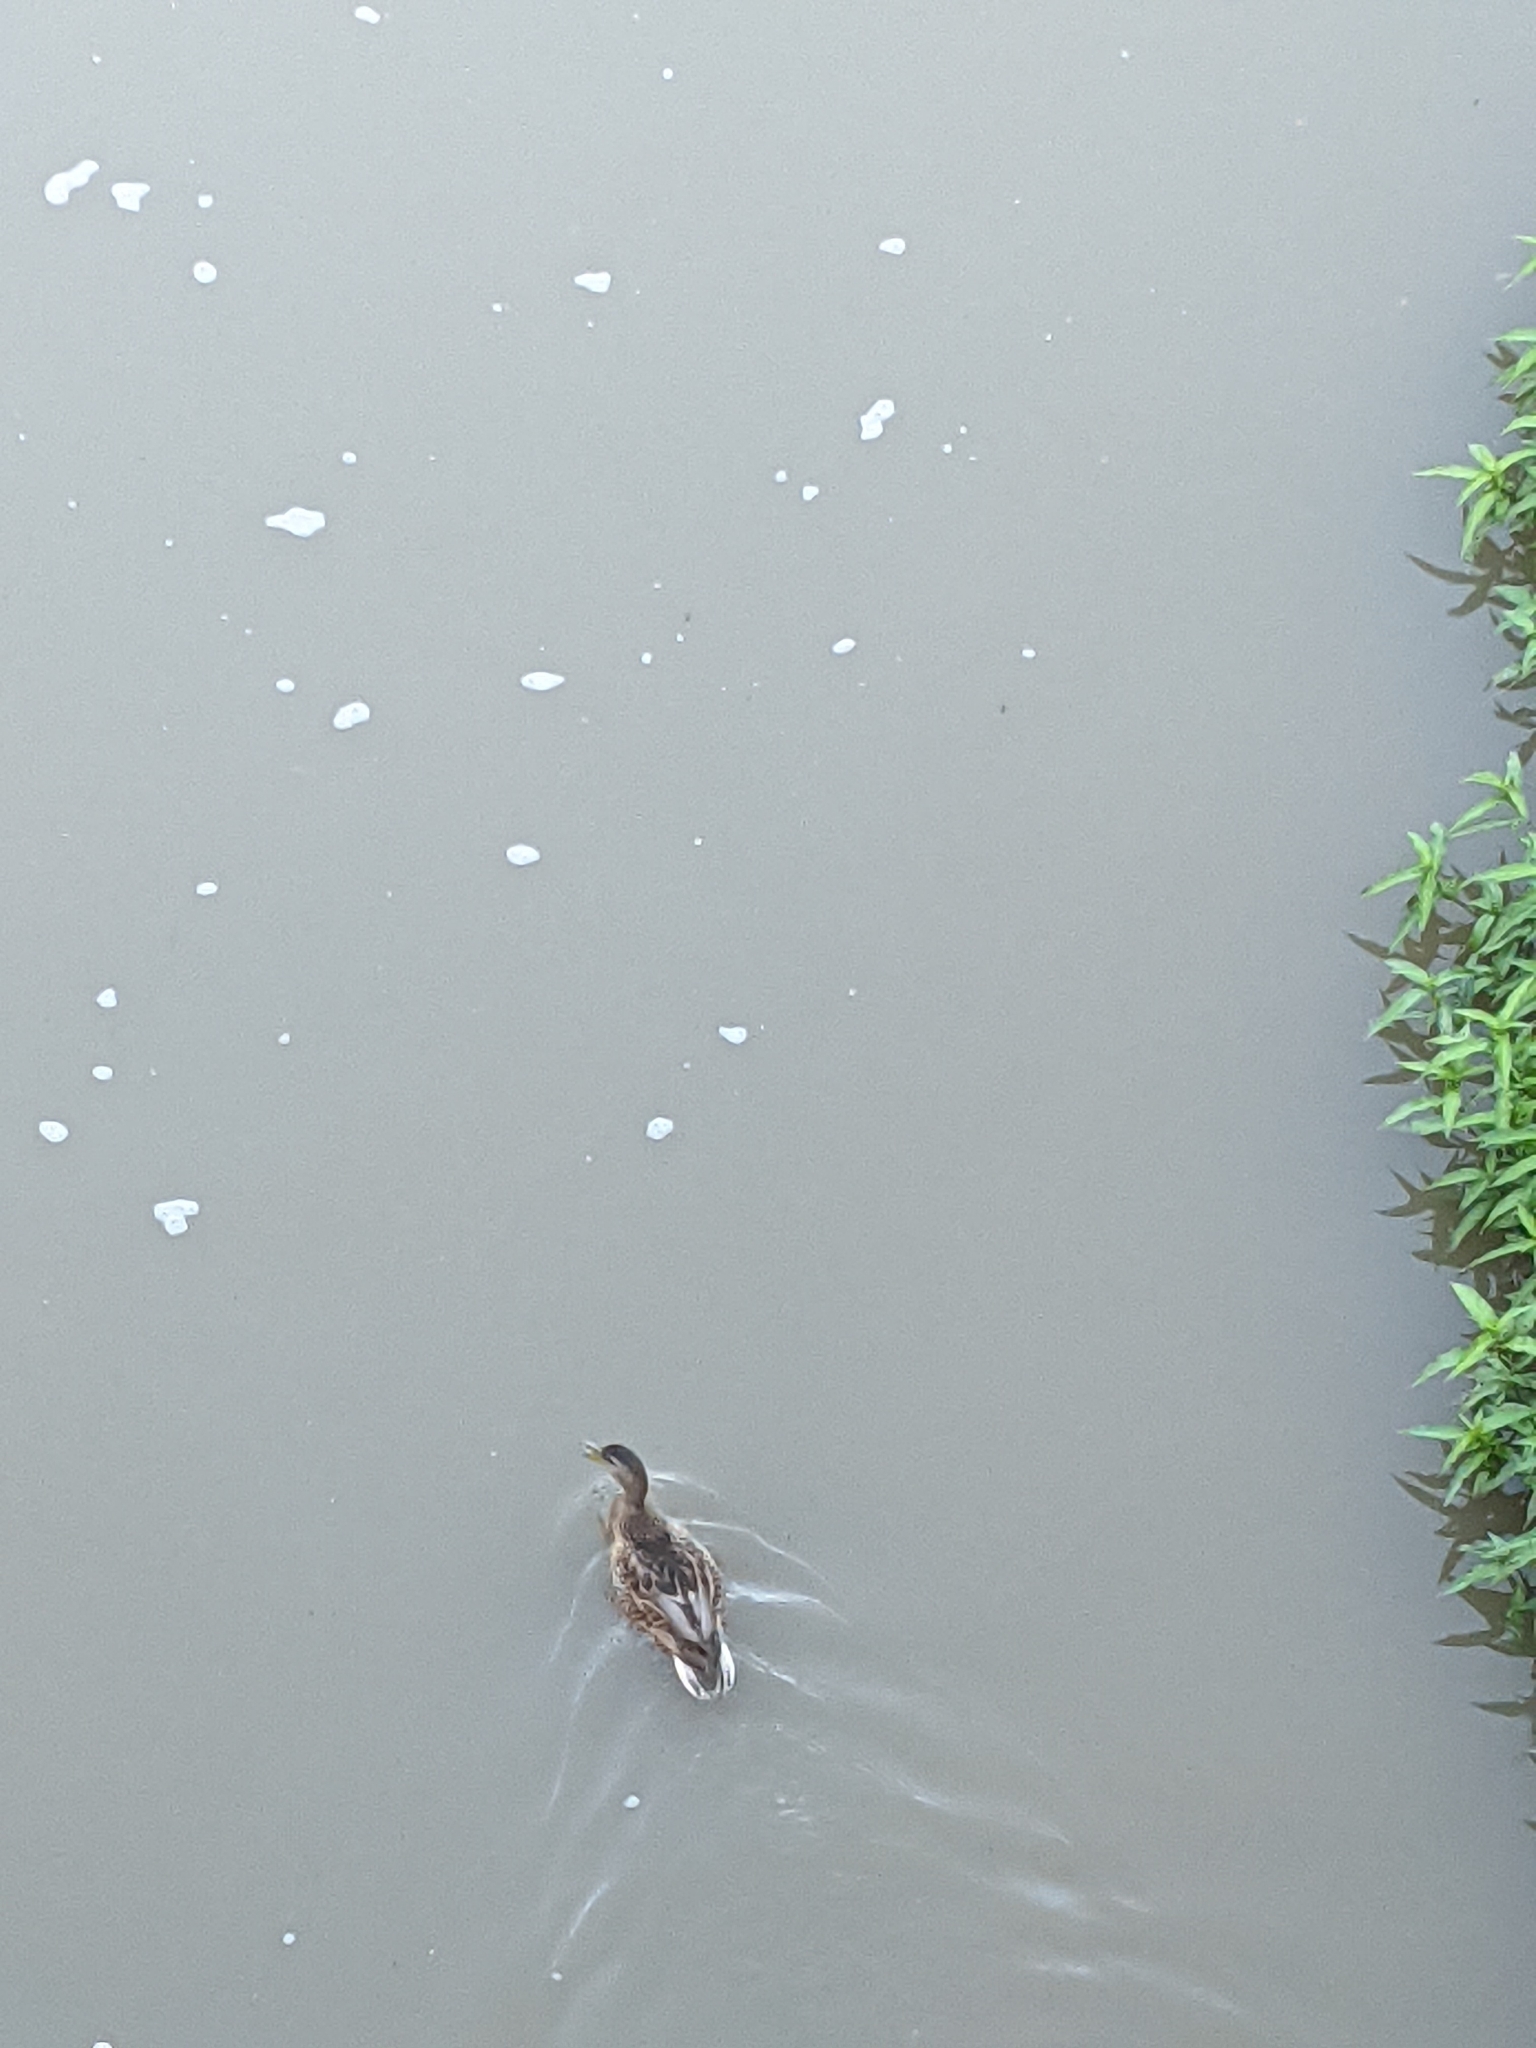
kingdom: Animalia
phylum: Chordata
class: Aves
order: Anseriformes
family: Anatidae
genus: Anas
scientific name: Anas platyrhynchos
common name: Mallard
